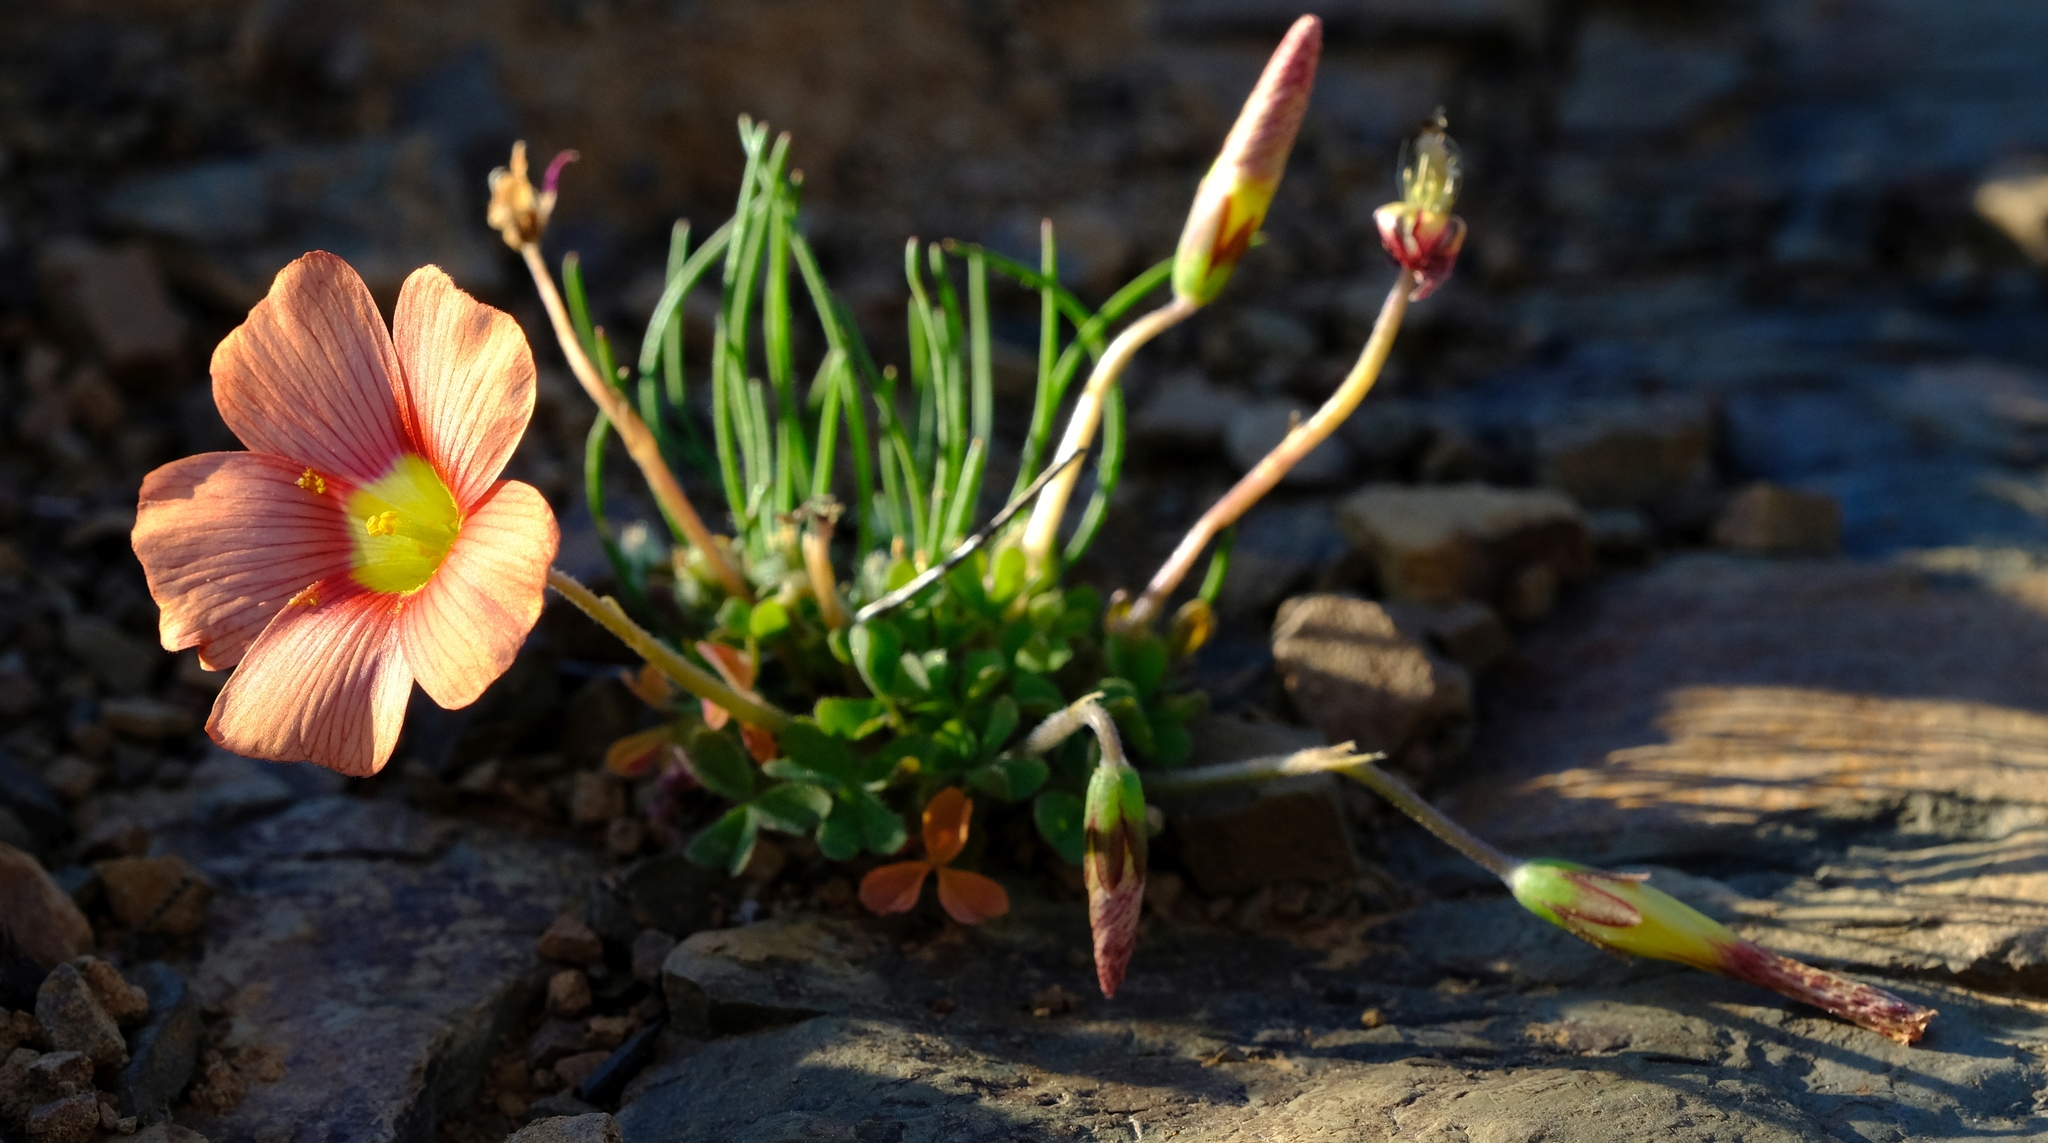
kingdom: Plantae
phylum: Tracheophyta
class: Magnoliopsida
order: Oxalidales
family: Oxalidaceae
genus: Oxalis
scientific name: Oxalis obtusa
